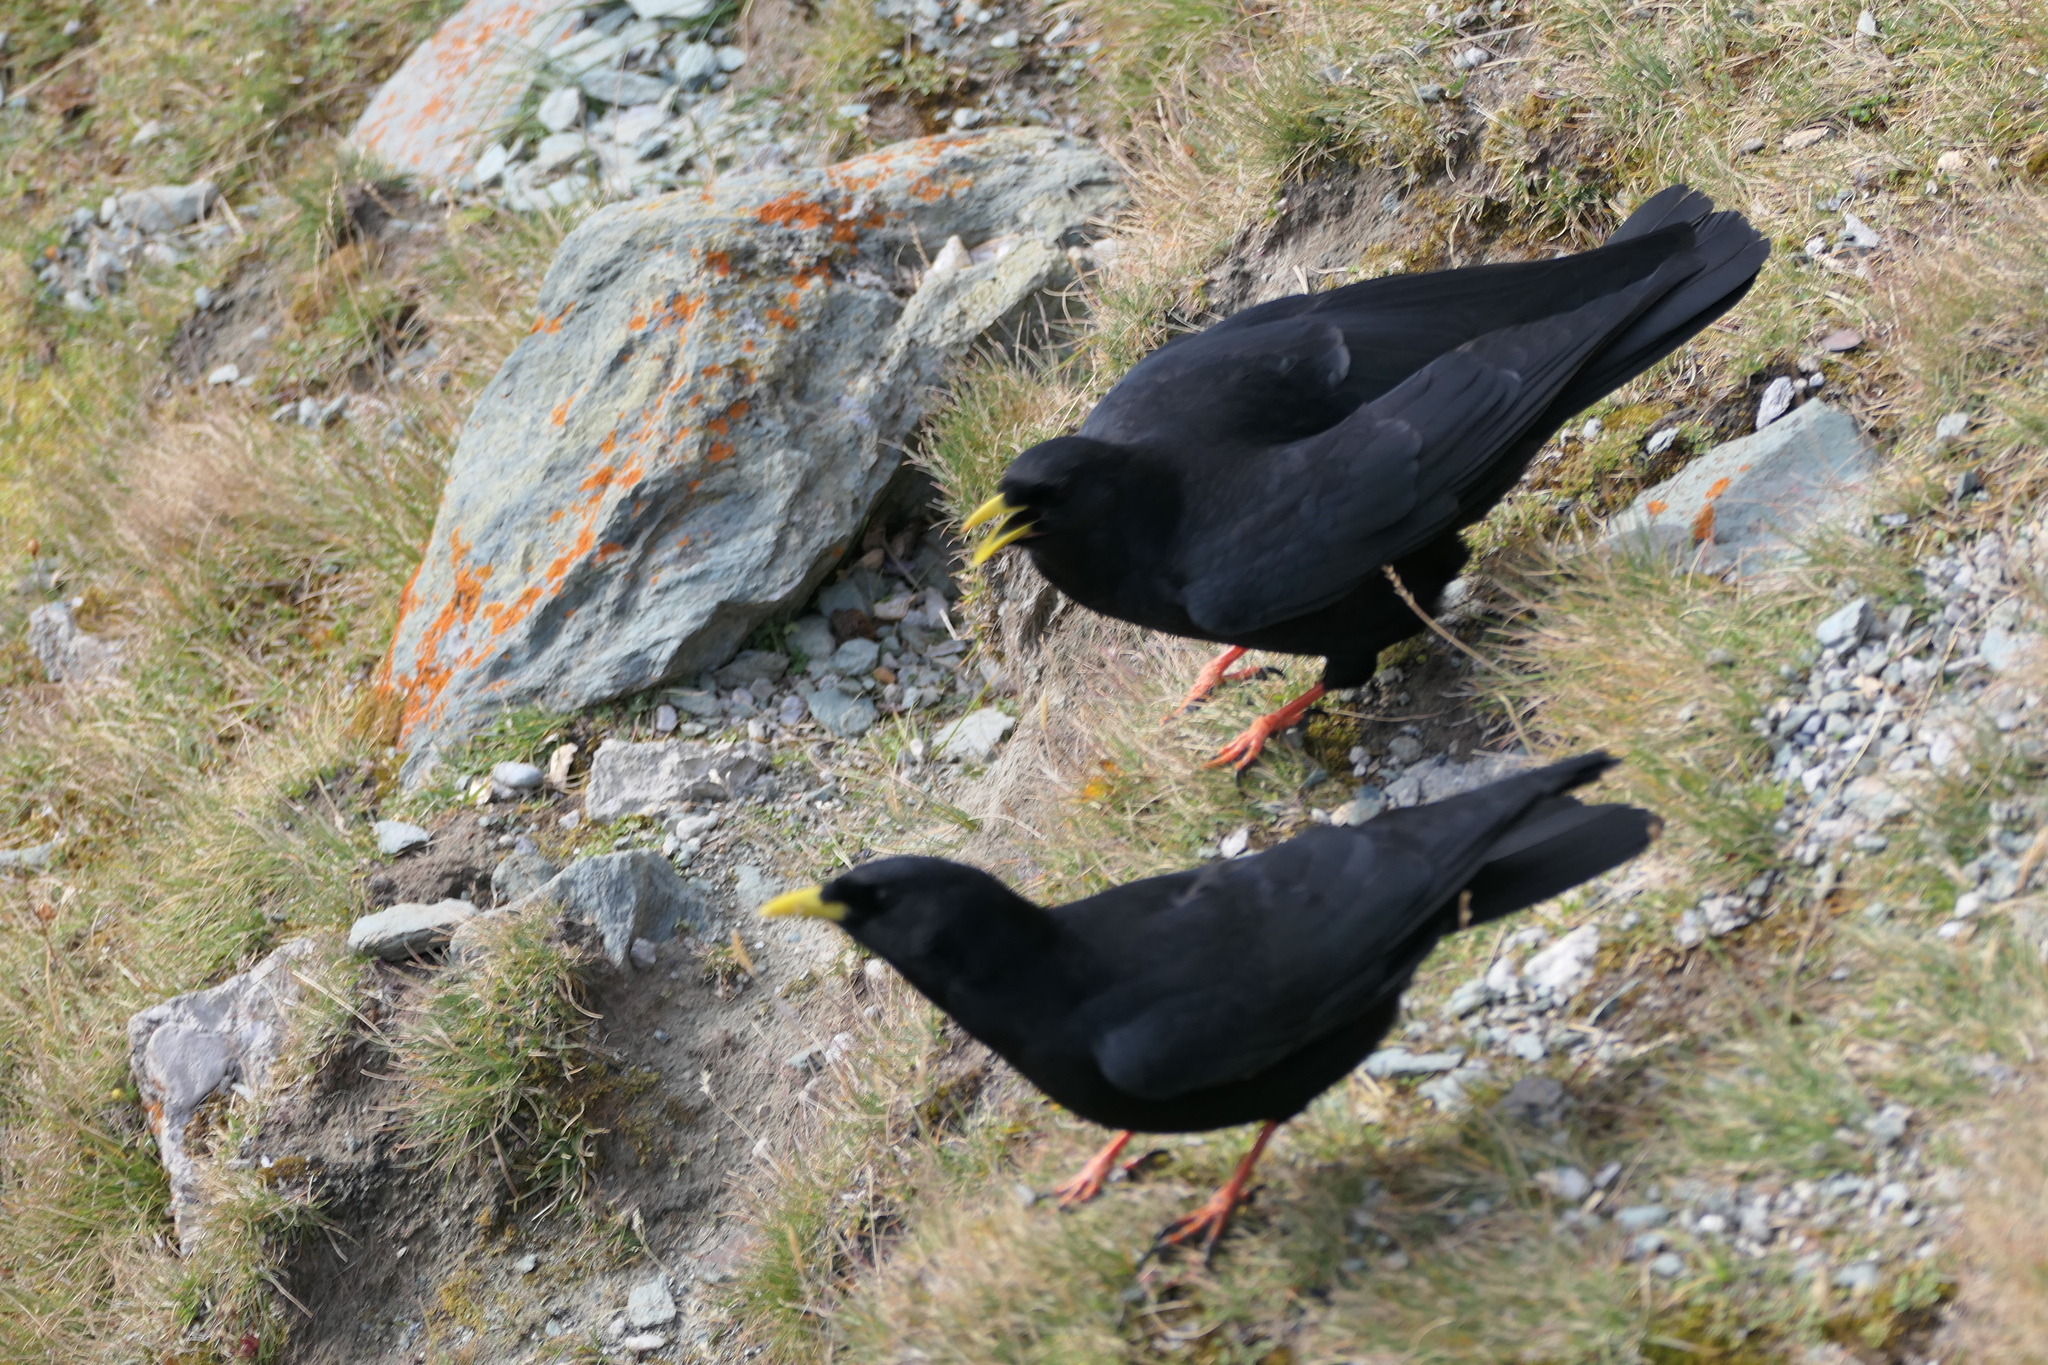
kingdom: Animalia
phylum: Chordata
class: Aves
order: Passeriformes
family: Corvidae
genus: Pyrrhocorax
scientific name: Pyrrhocorax graculus
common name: Alpine chough
